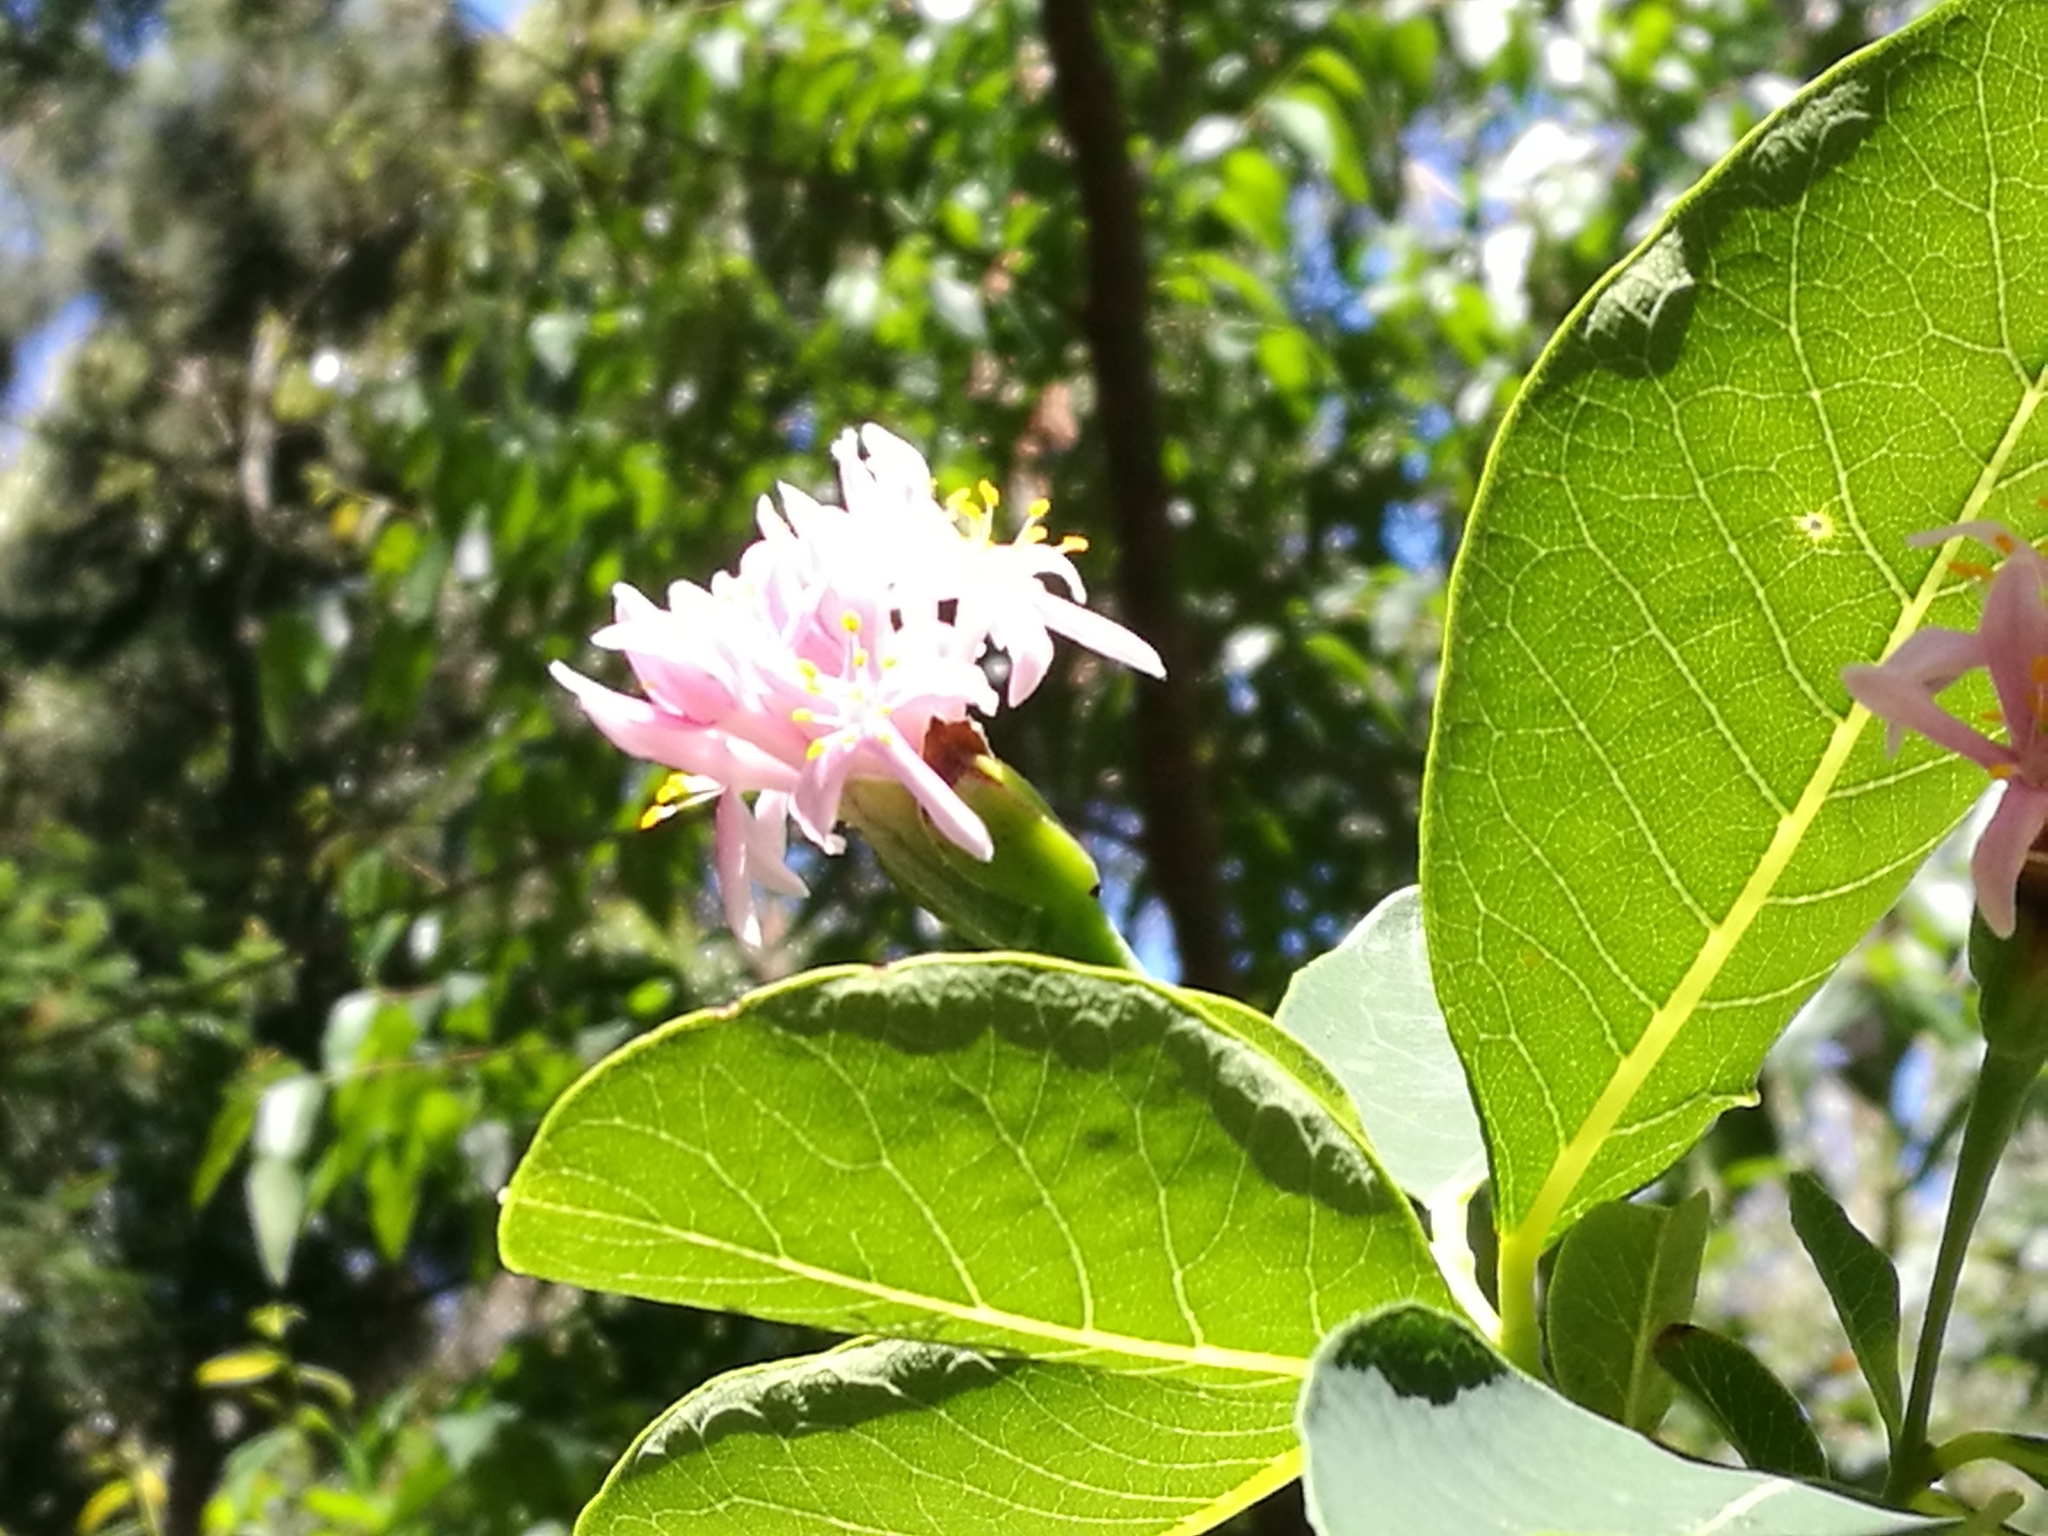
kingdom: Plantae
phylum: Tracheophyta
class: Magnoliopsida
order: Malvales
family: Thymelaeaceae
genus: Dais
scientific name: Dais cotinifolia
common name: Pompon tree
